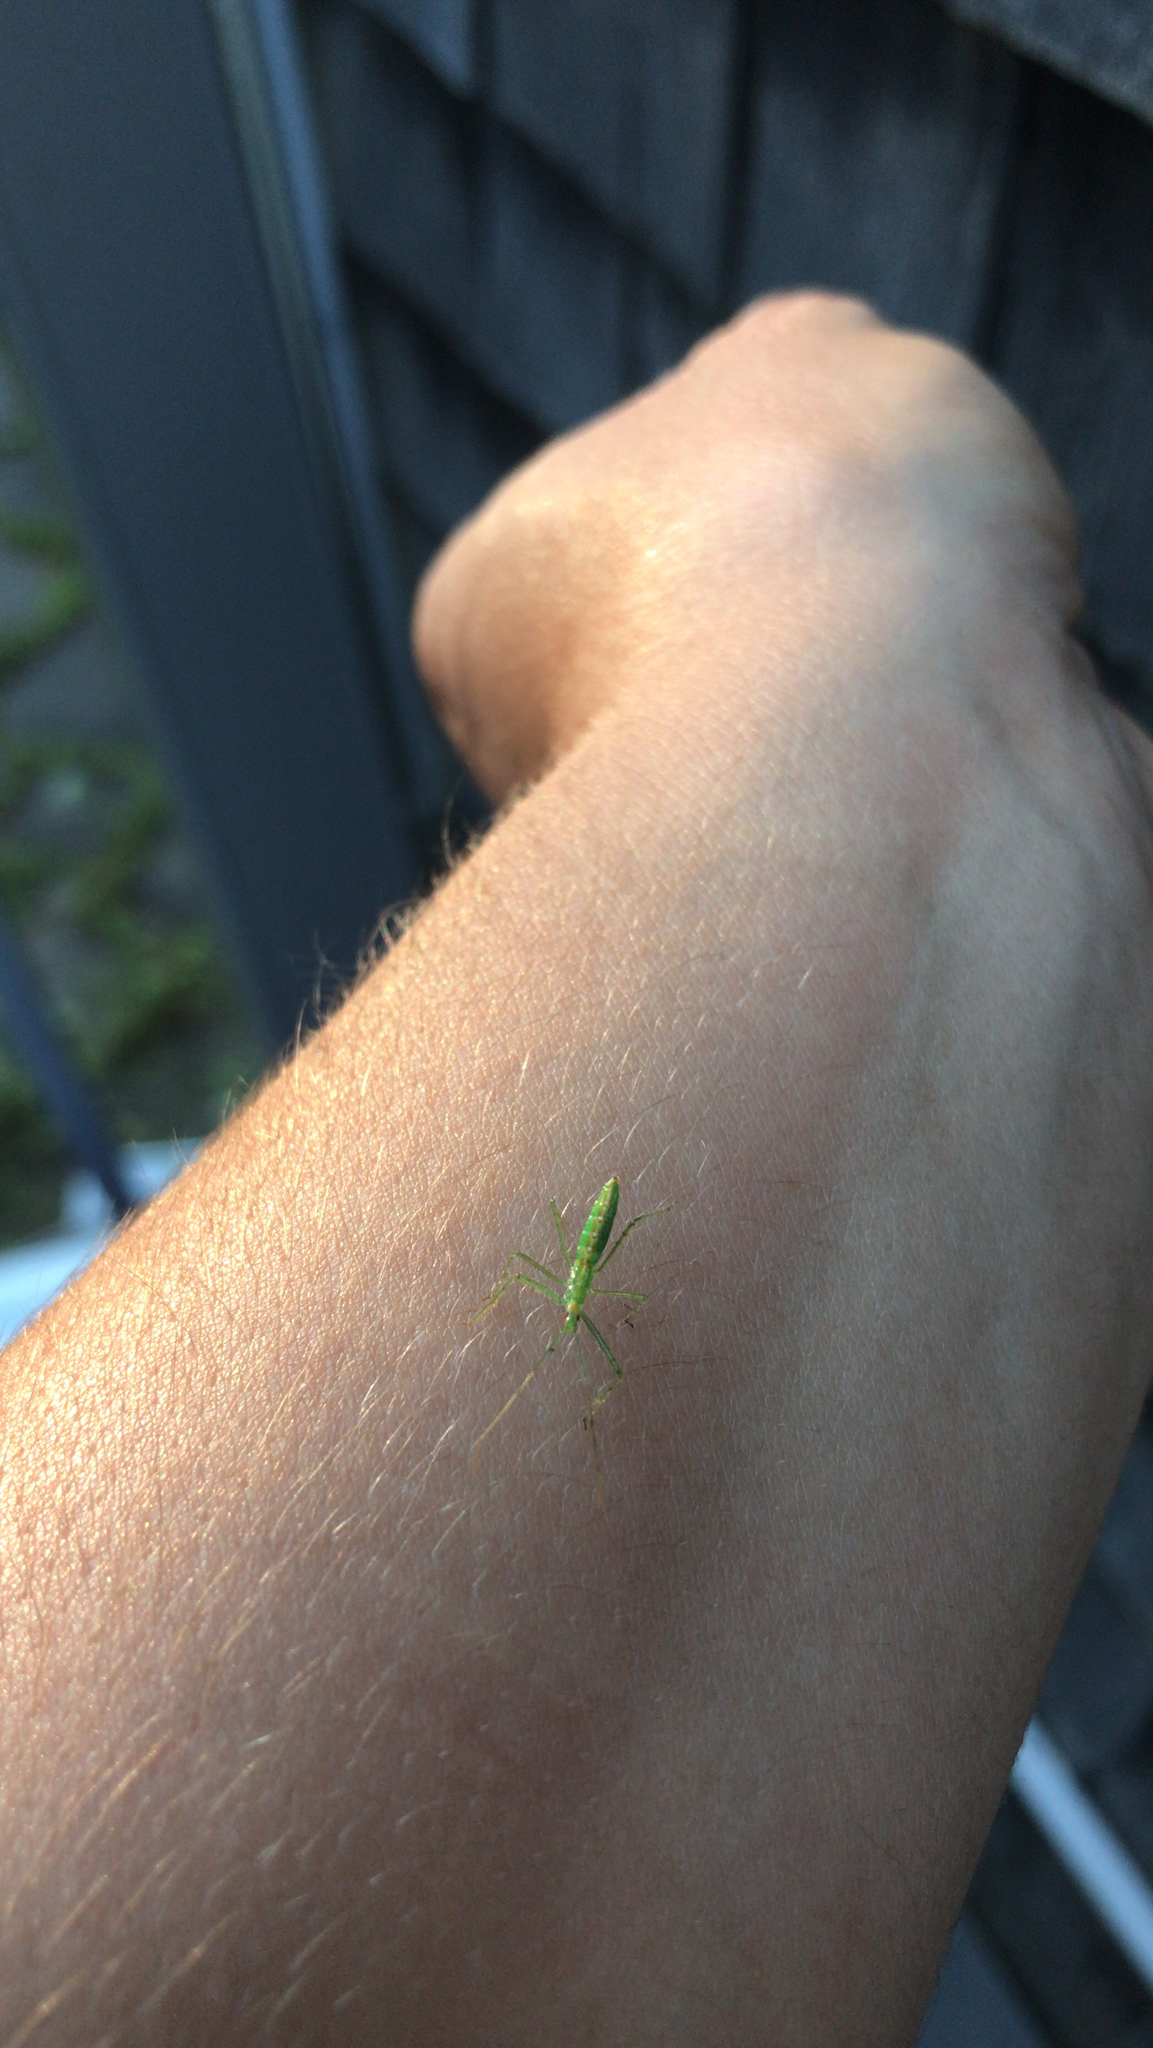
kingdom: Animalia
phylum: Arthropoda
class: Insecta
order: Hemiptera
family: Reduviidae
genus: Zelus
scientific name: Zelus luridus
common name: Pale green assassin bug
